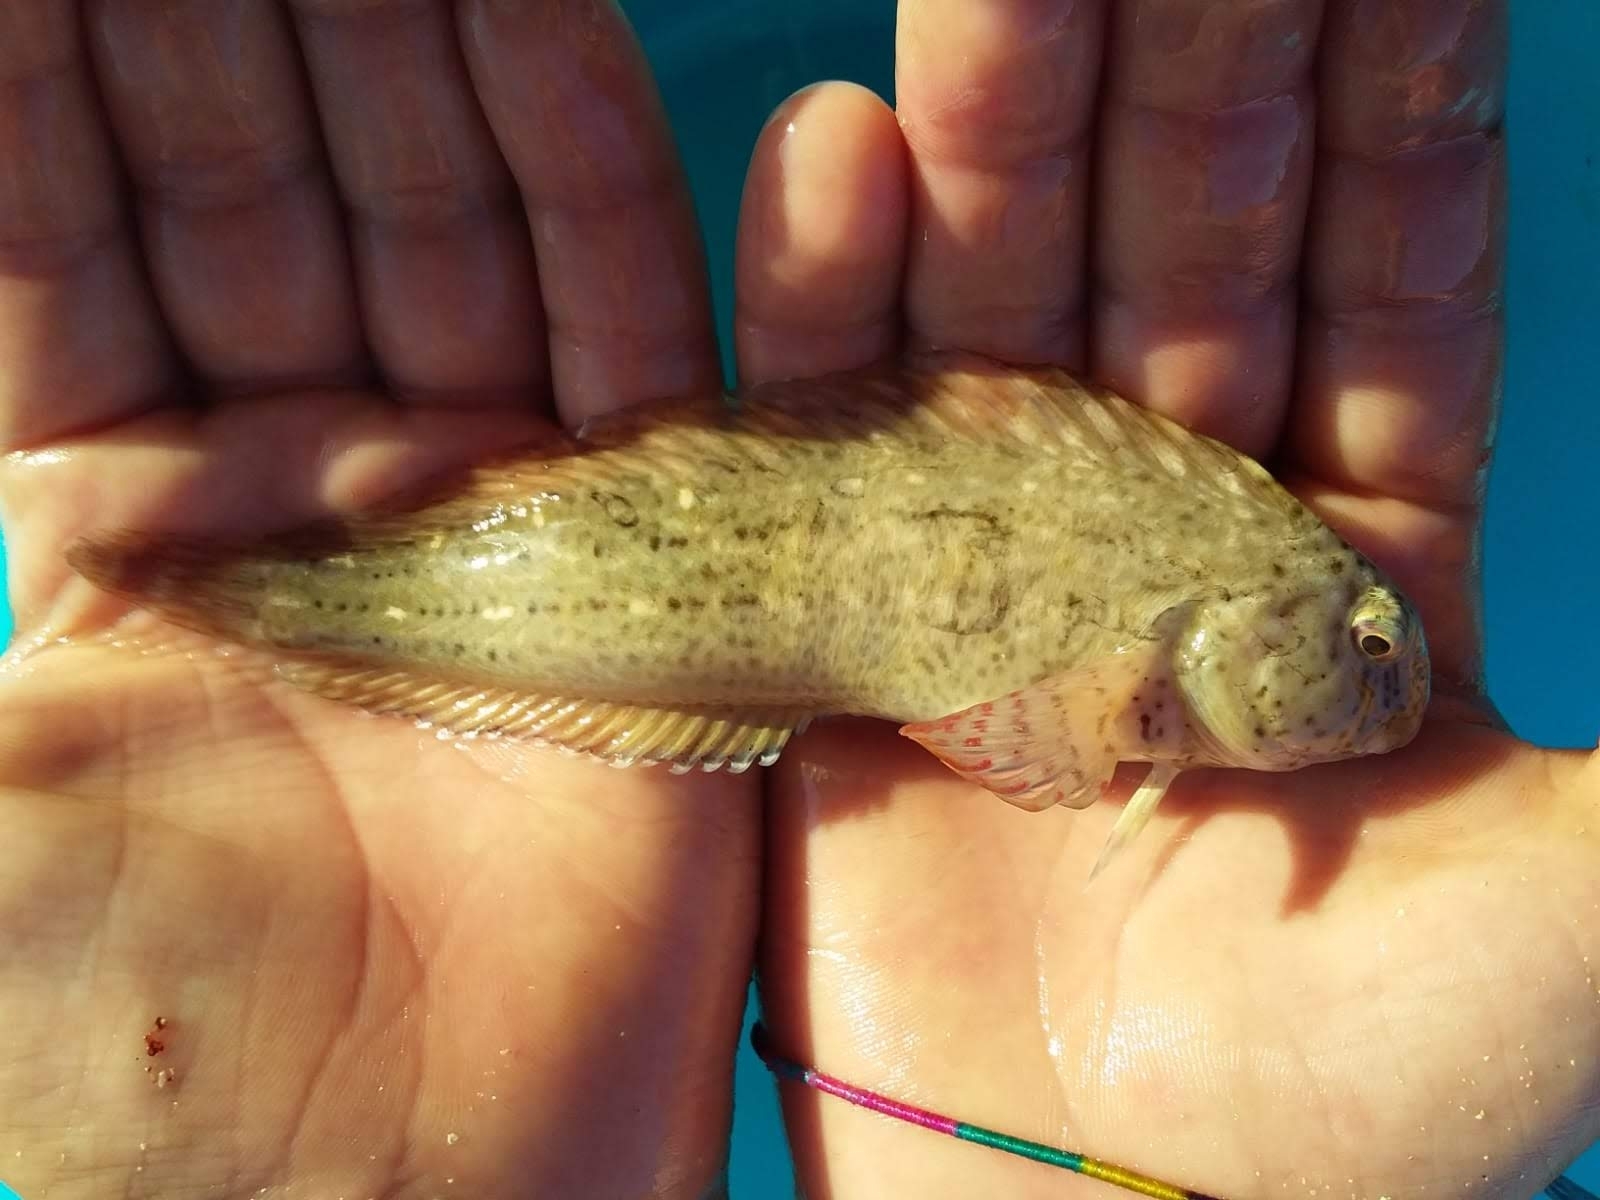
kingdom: Animalia
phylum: Chordata
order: Perciformes
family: Blenniidae
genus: Parablennius
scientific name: Parablennius sanguinolentus
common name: Black sea blenny
